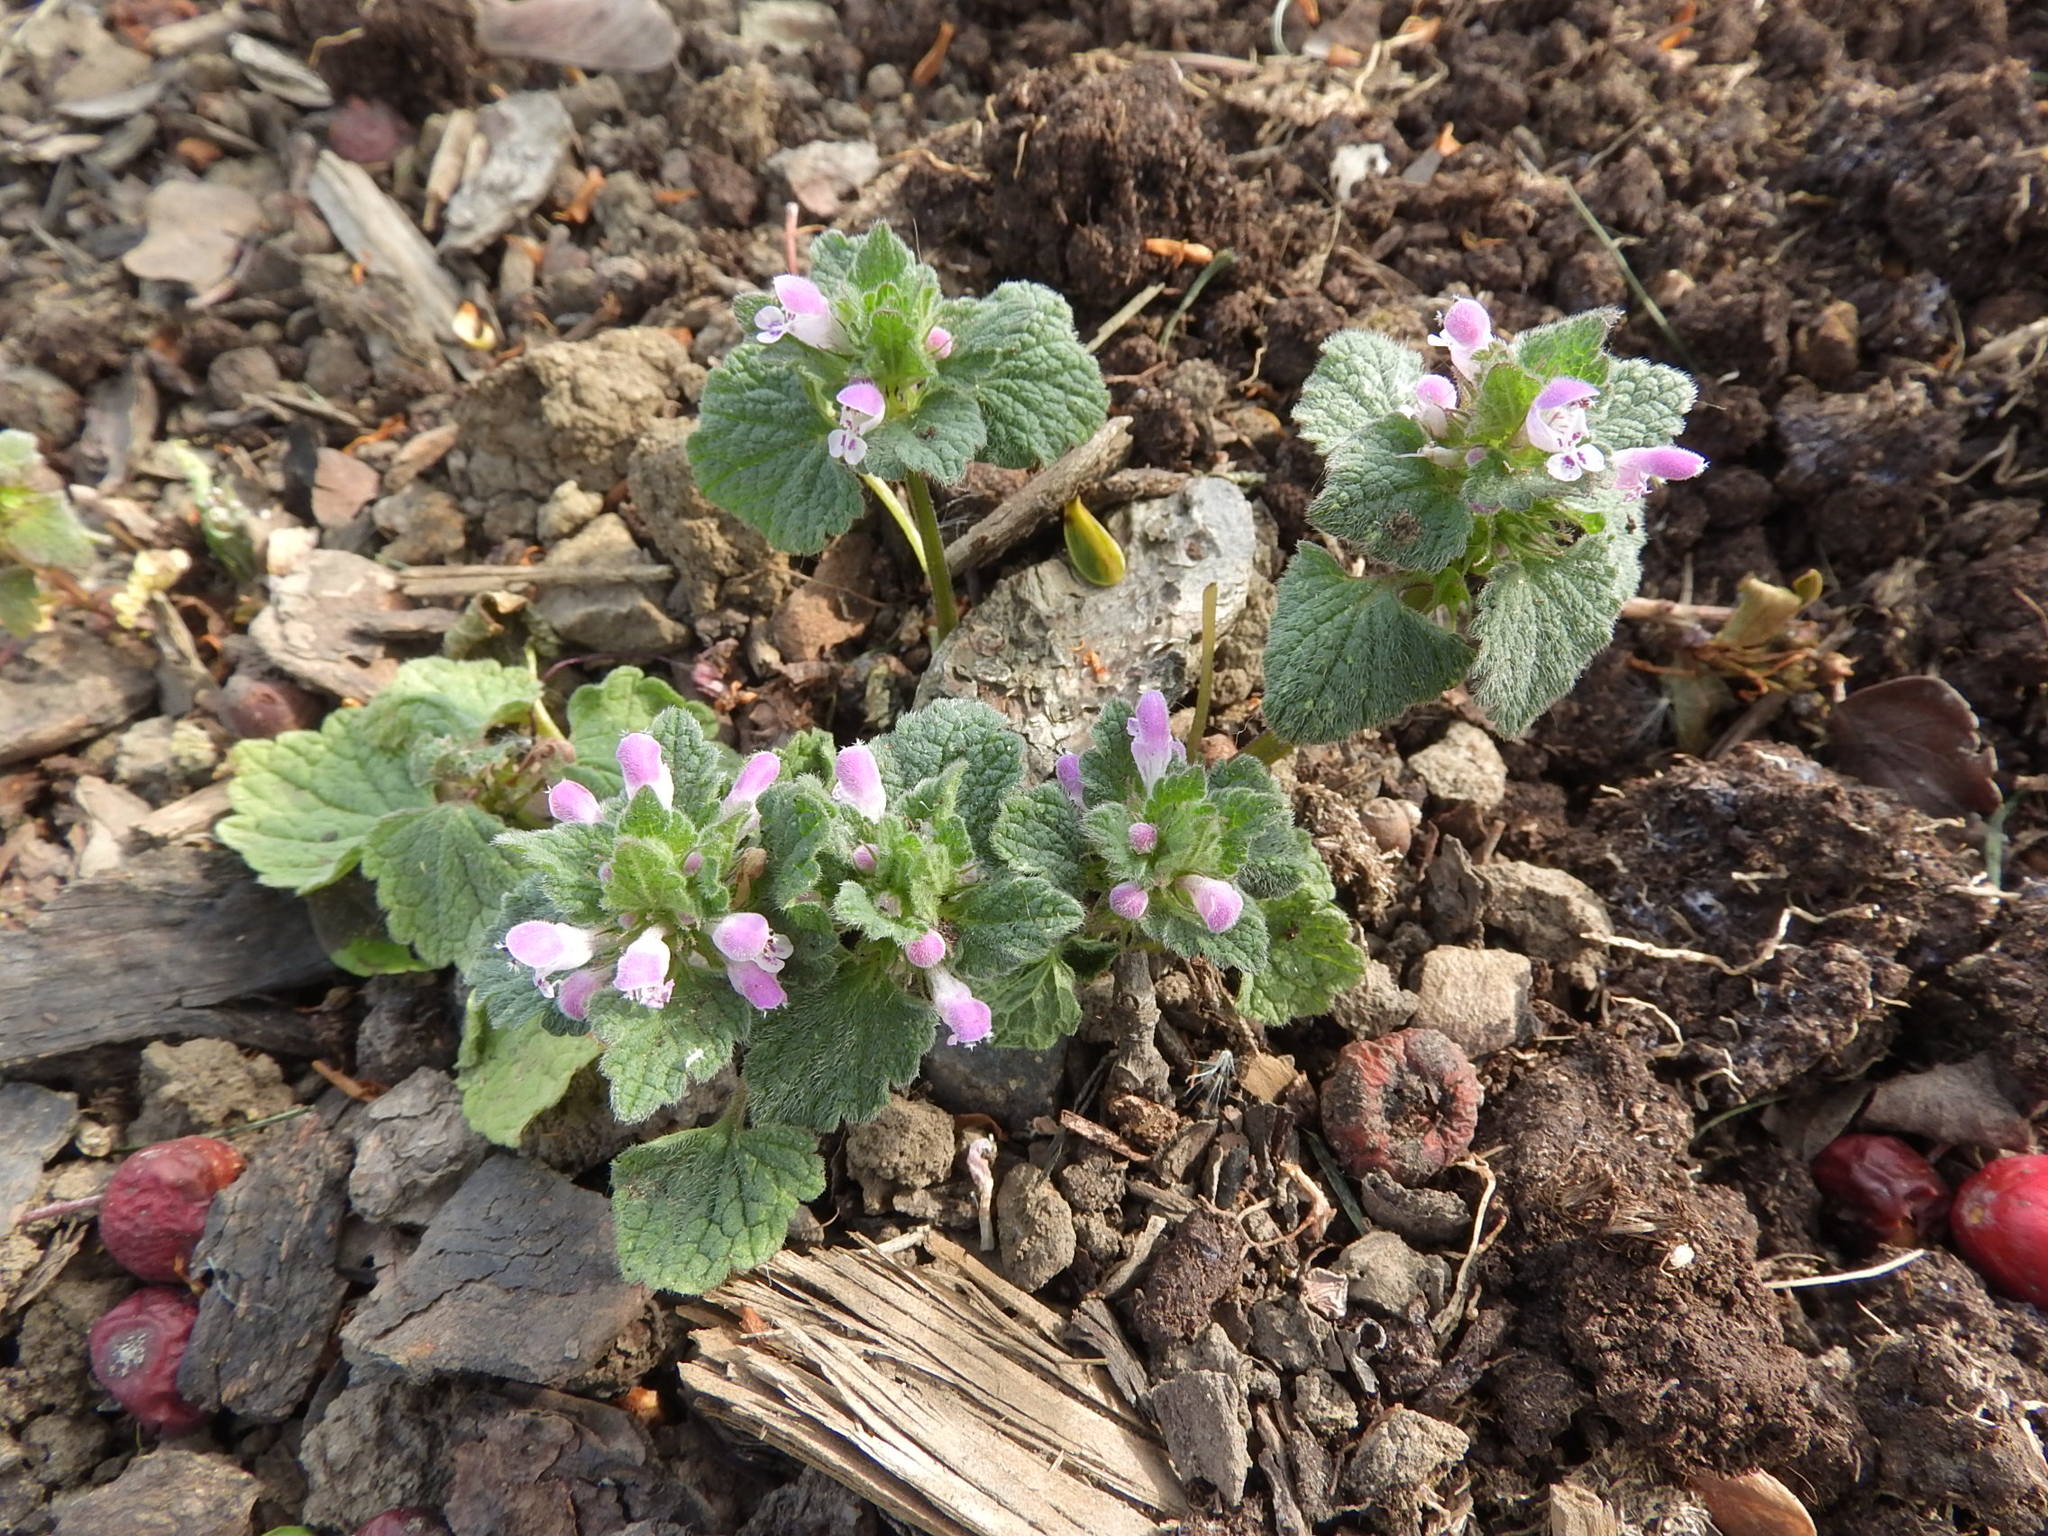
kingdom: Plantae
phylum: Tracheophyta
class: Magnoliopsida
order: Lamiales
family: Lamiaceae
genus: Lamium
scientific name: Lamium purpureum
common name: Red dead-nettle
